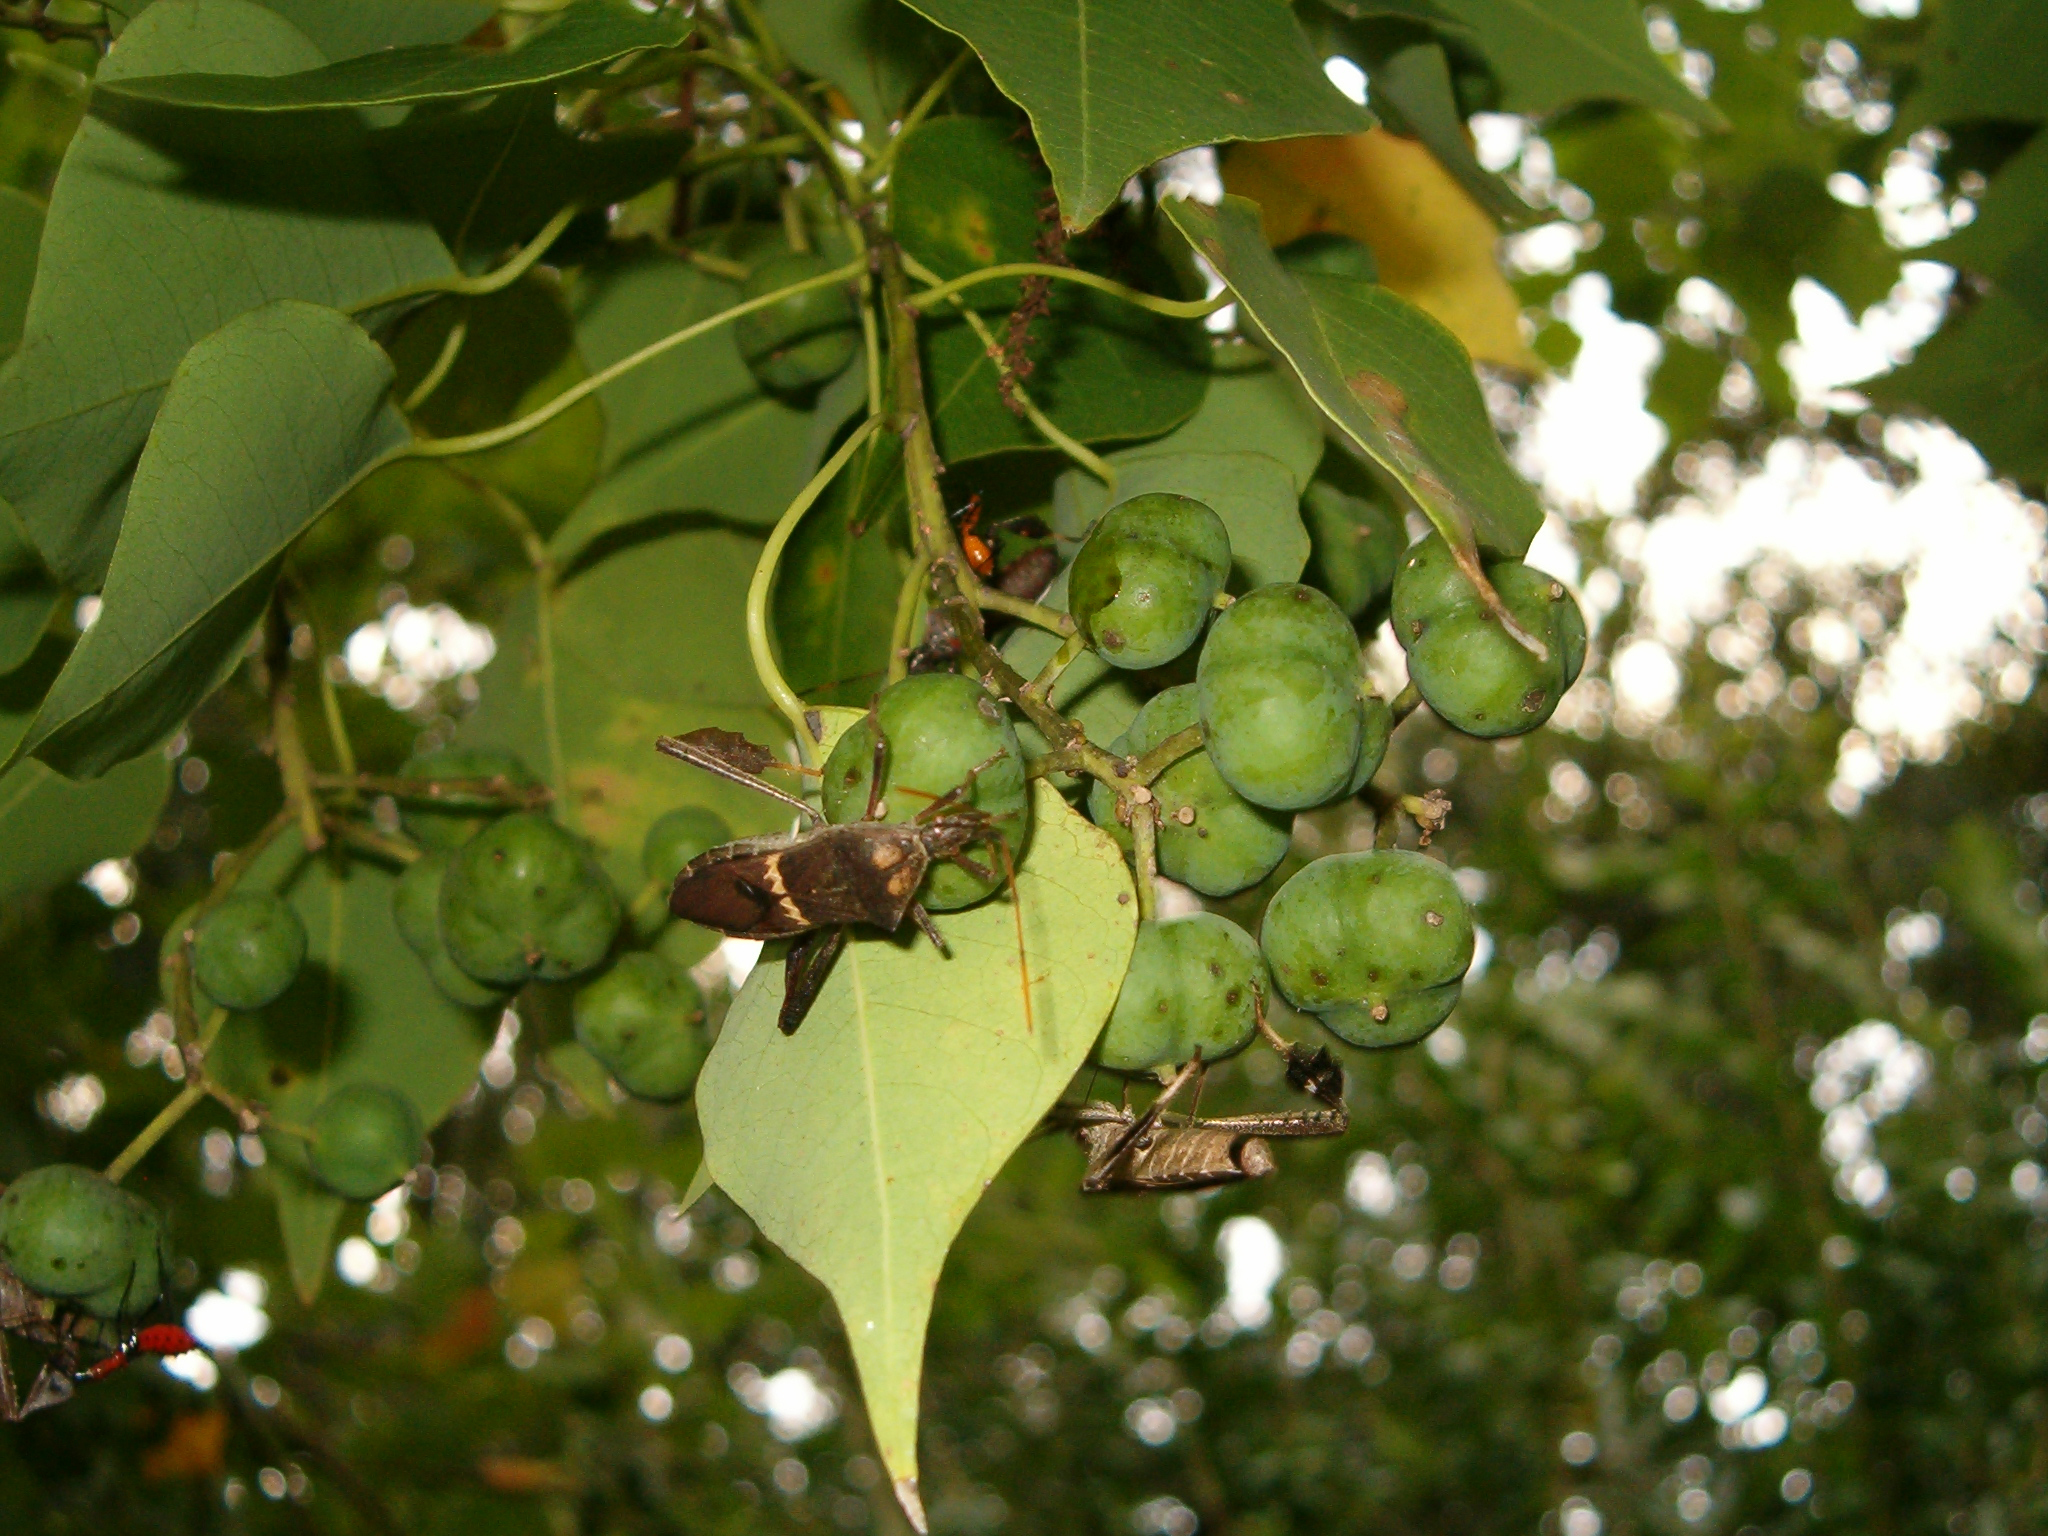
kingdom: Animalia
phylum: Arthropoda
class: Insecta
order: Hemiptera
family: Coreidae
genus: Leptoglossus
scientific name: Leptoglossus zonatus
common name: Large-legged bug
